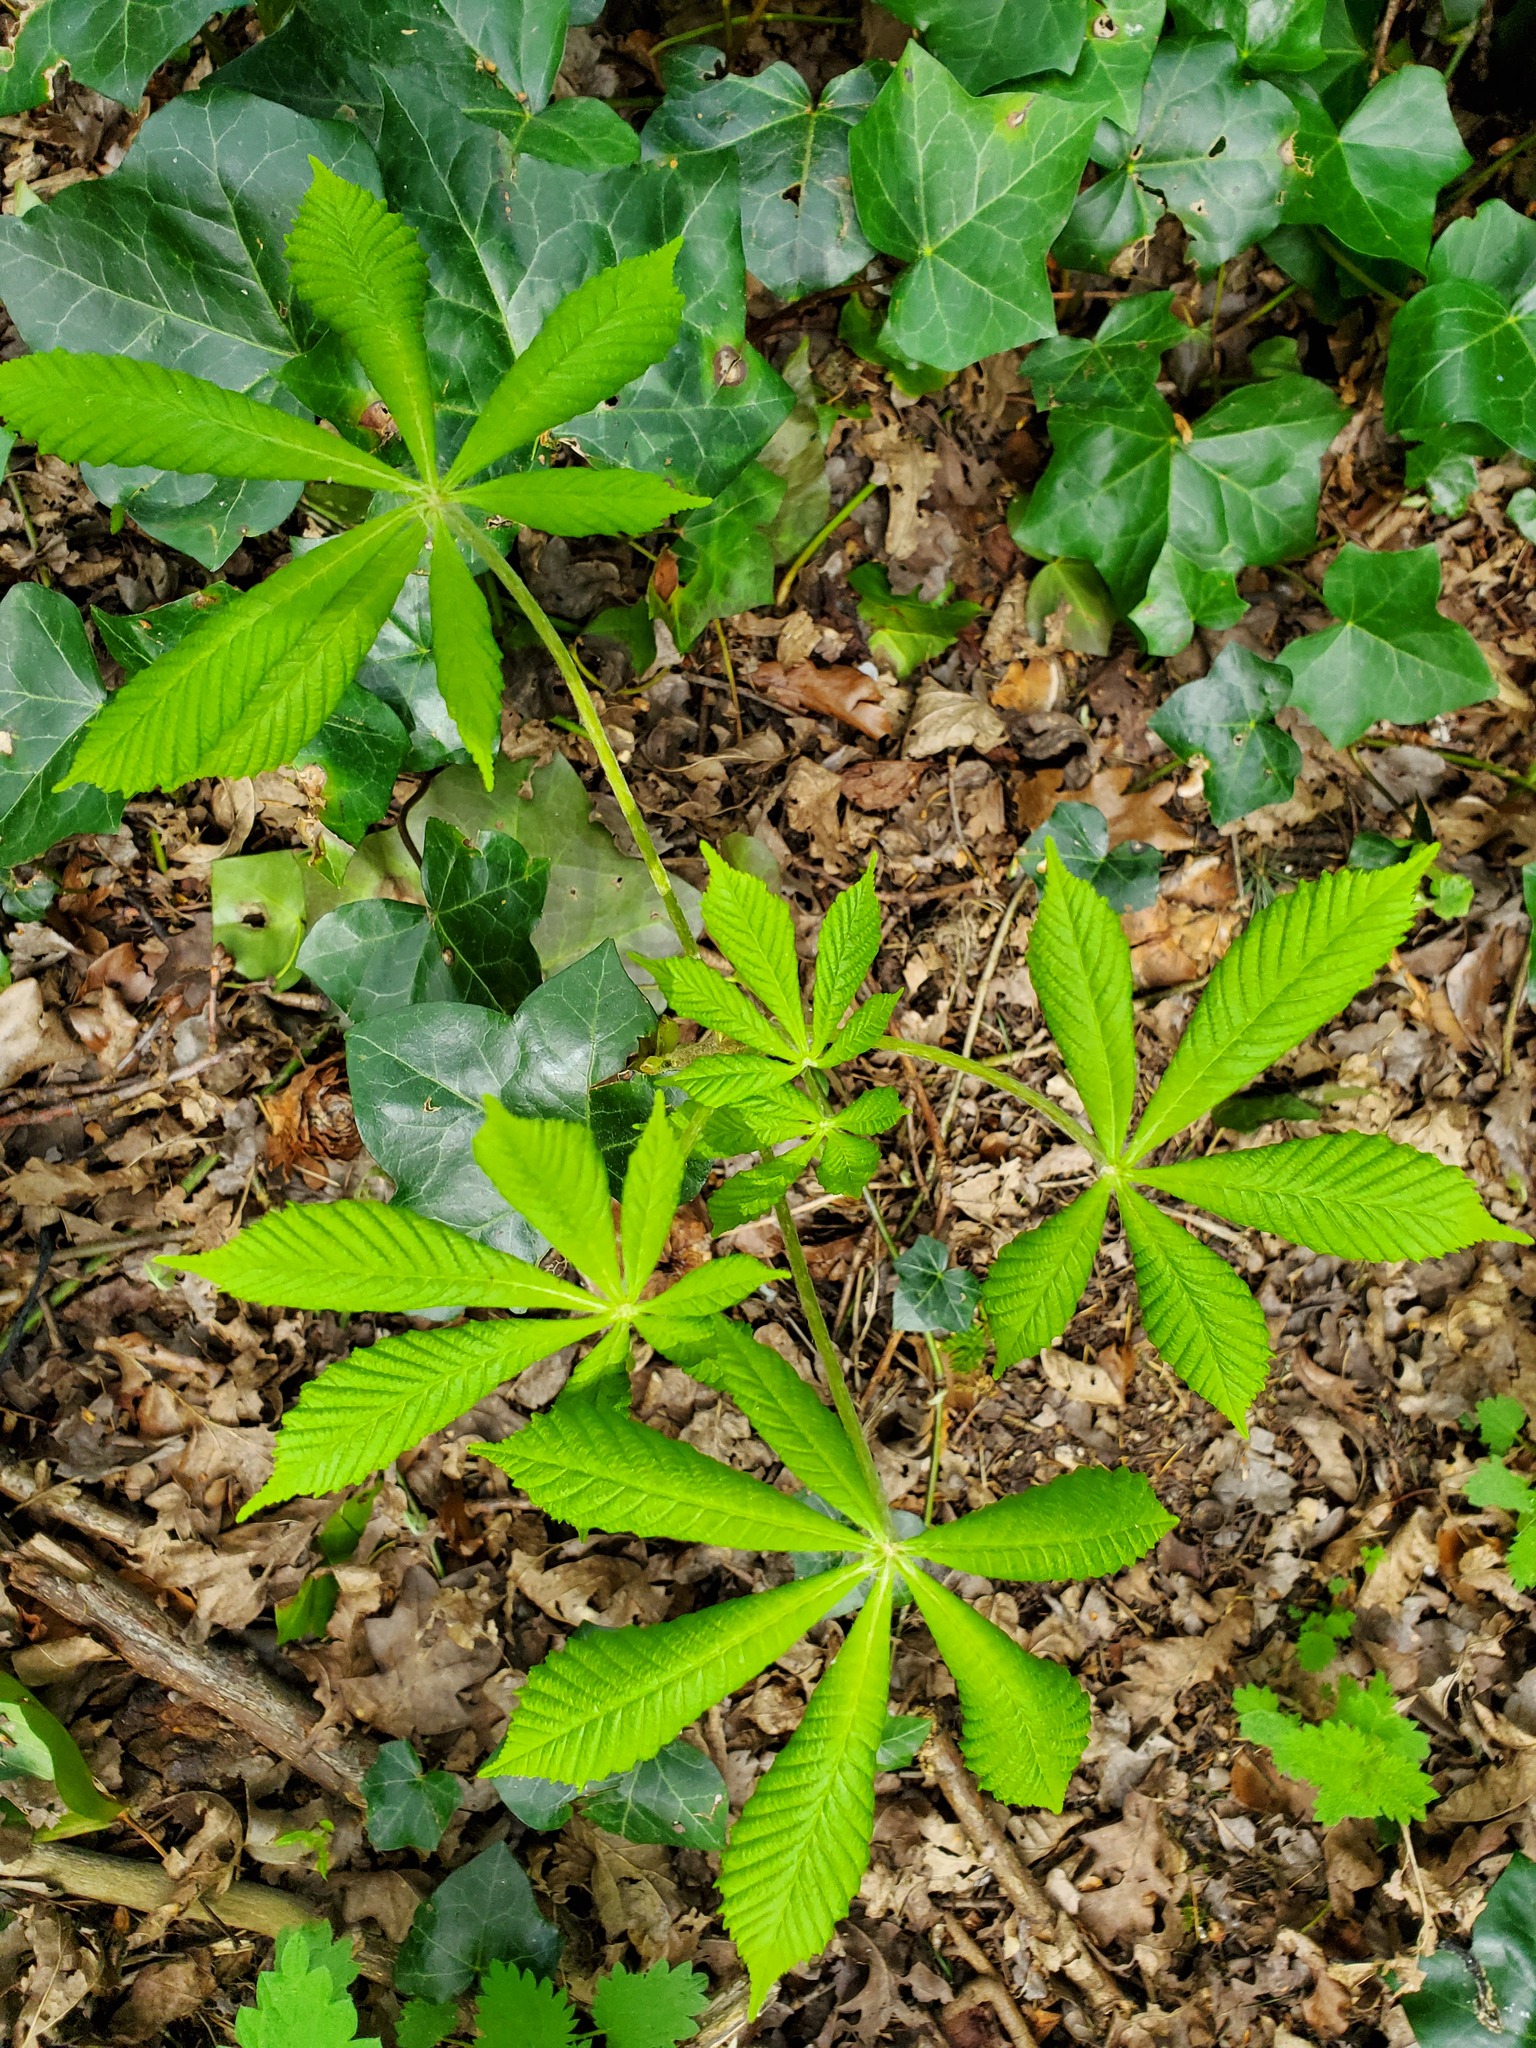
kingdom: Plantae
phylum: Tracheophyta
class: Magnoliopsida
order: Sapindales
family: Sapindaceae
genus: Aesculus
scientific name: Aesculus hippocastanum
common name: Horse-chestnut
